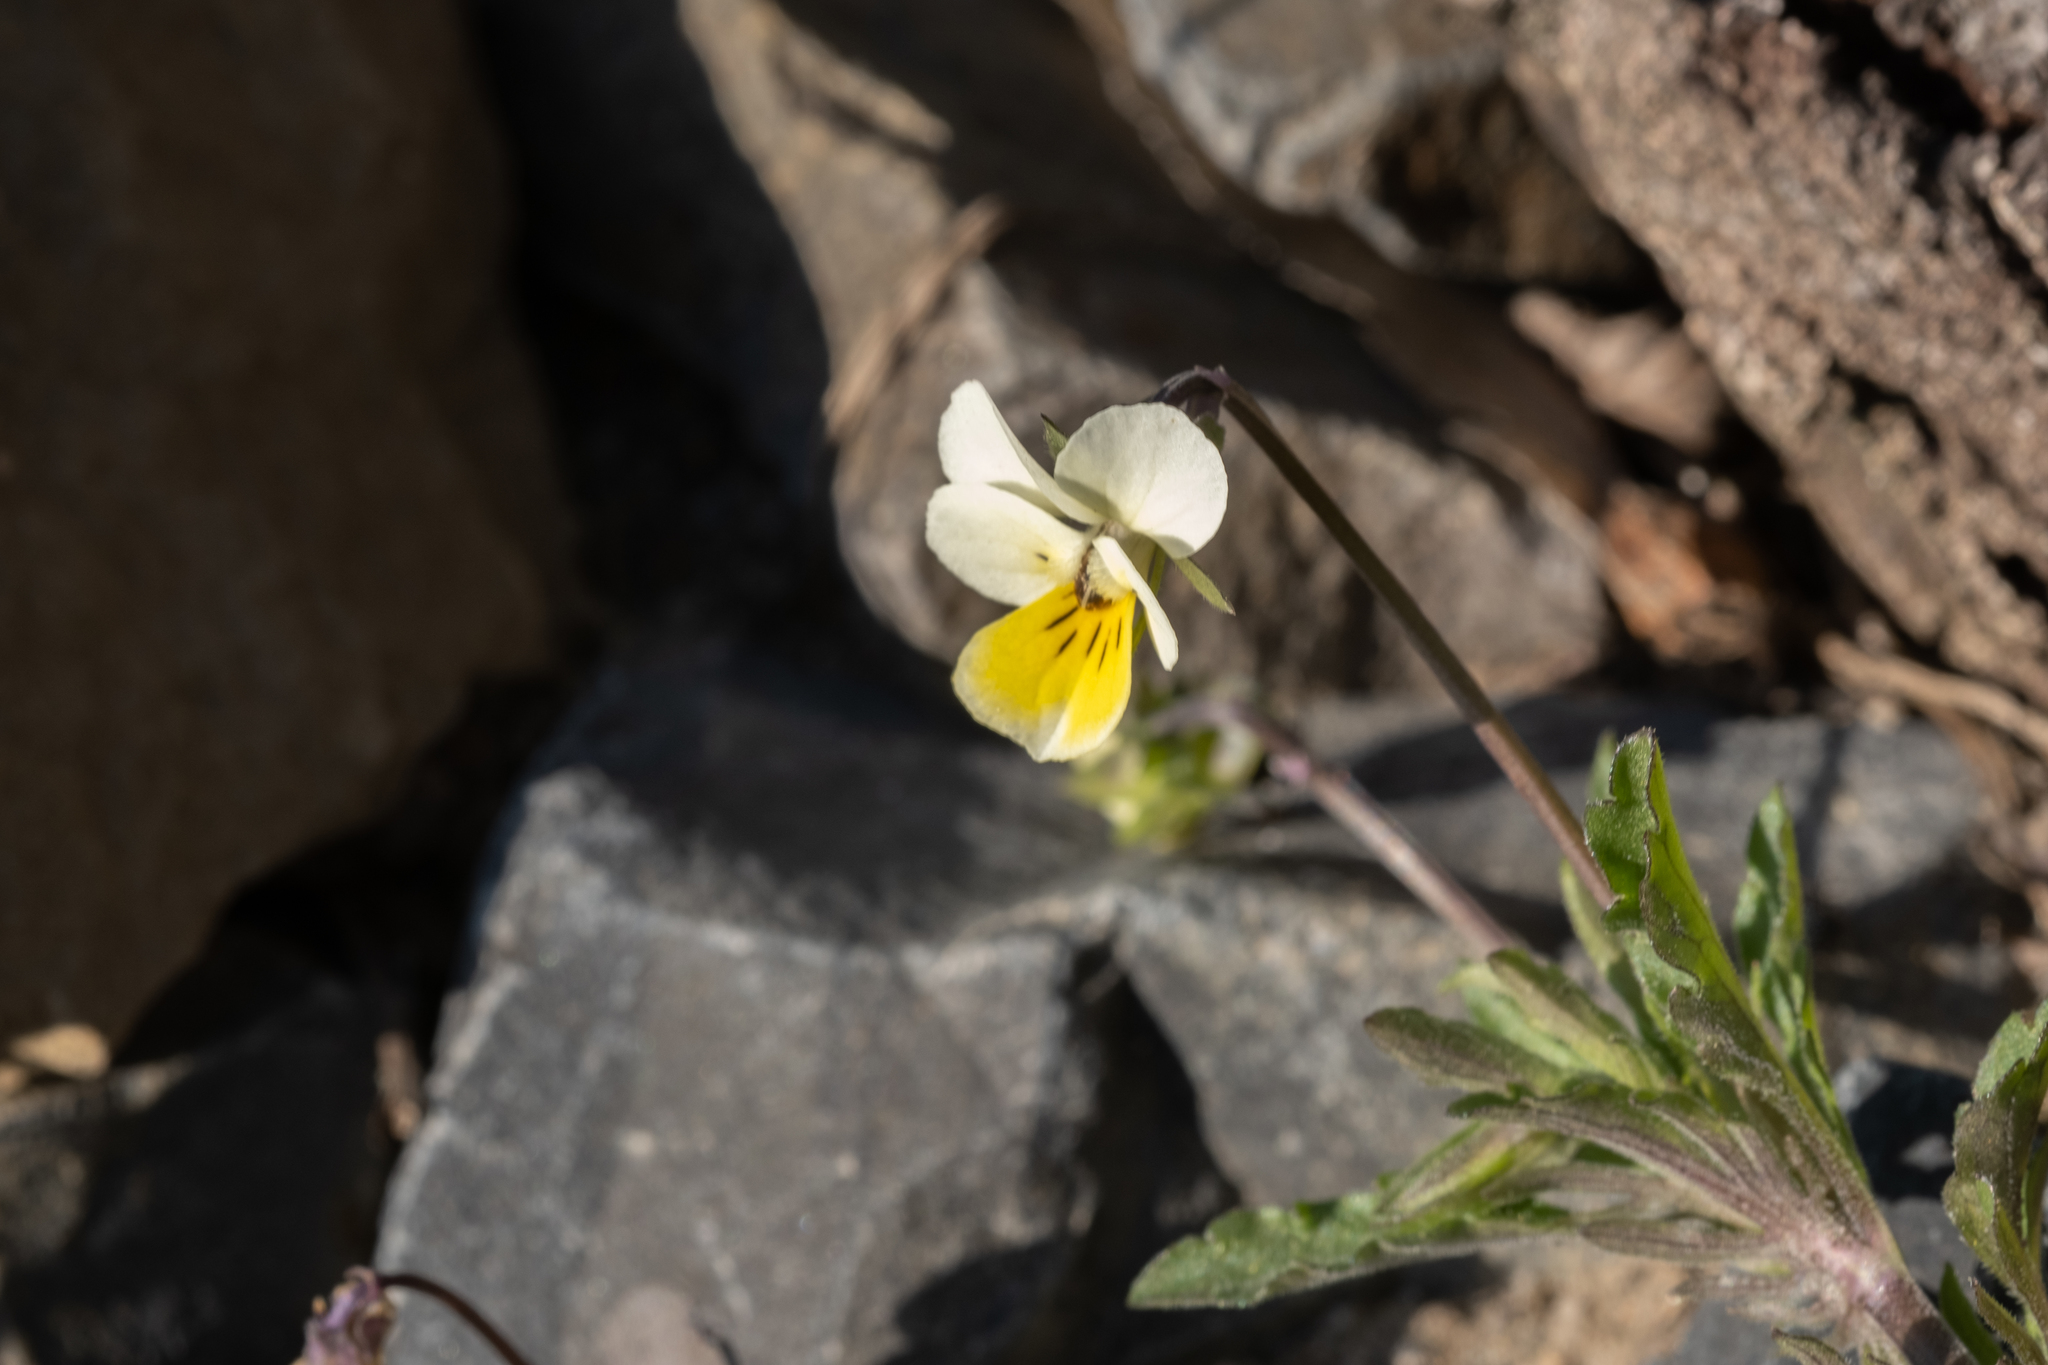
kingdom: Plantae
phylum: Tracheophyta
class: Magnoliopsida
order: Malpighiales
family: Violaceae
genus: Viola
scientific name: Viola arvensis
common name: Field pansy
